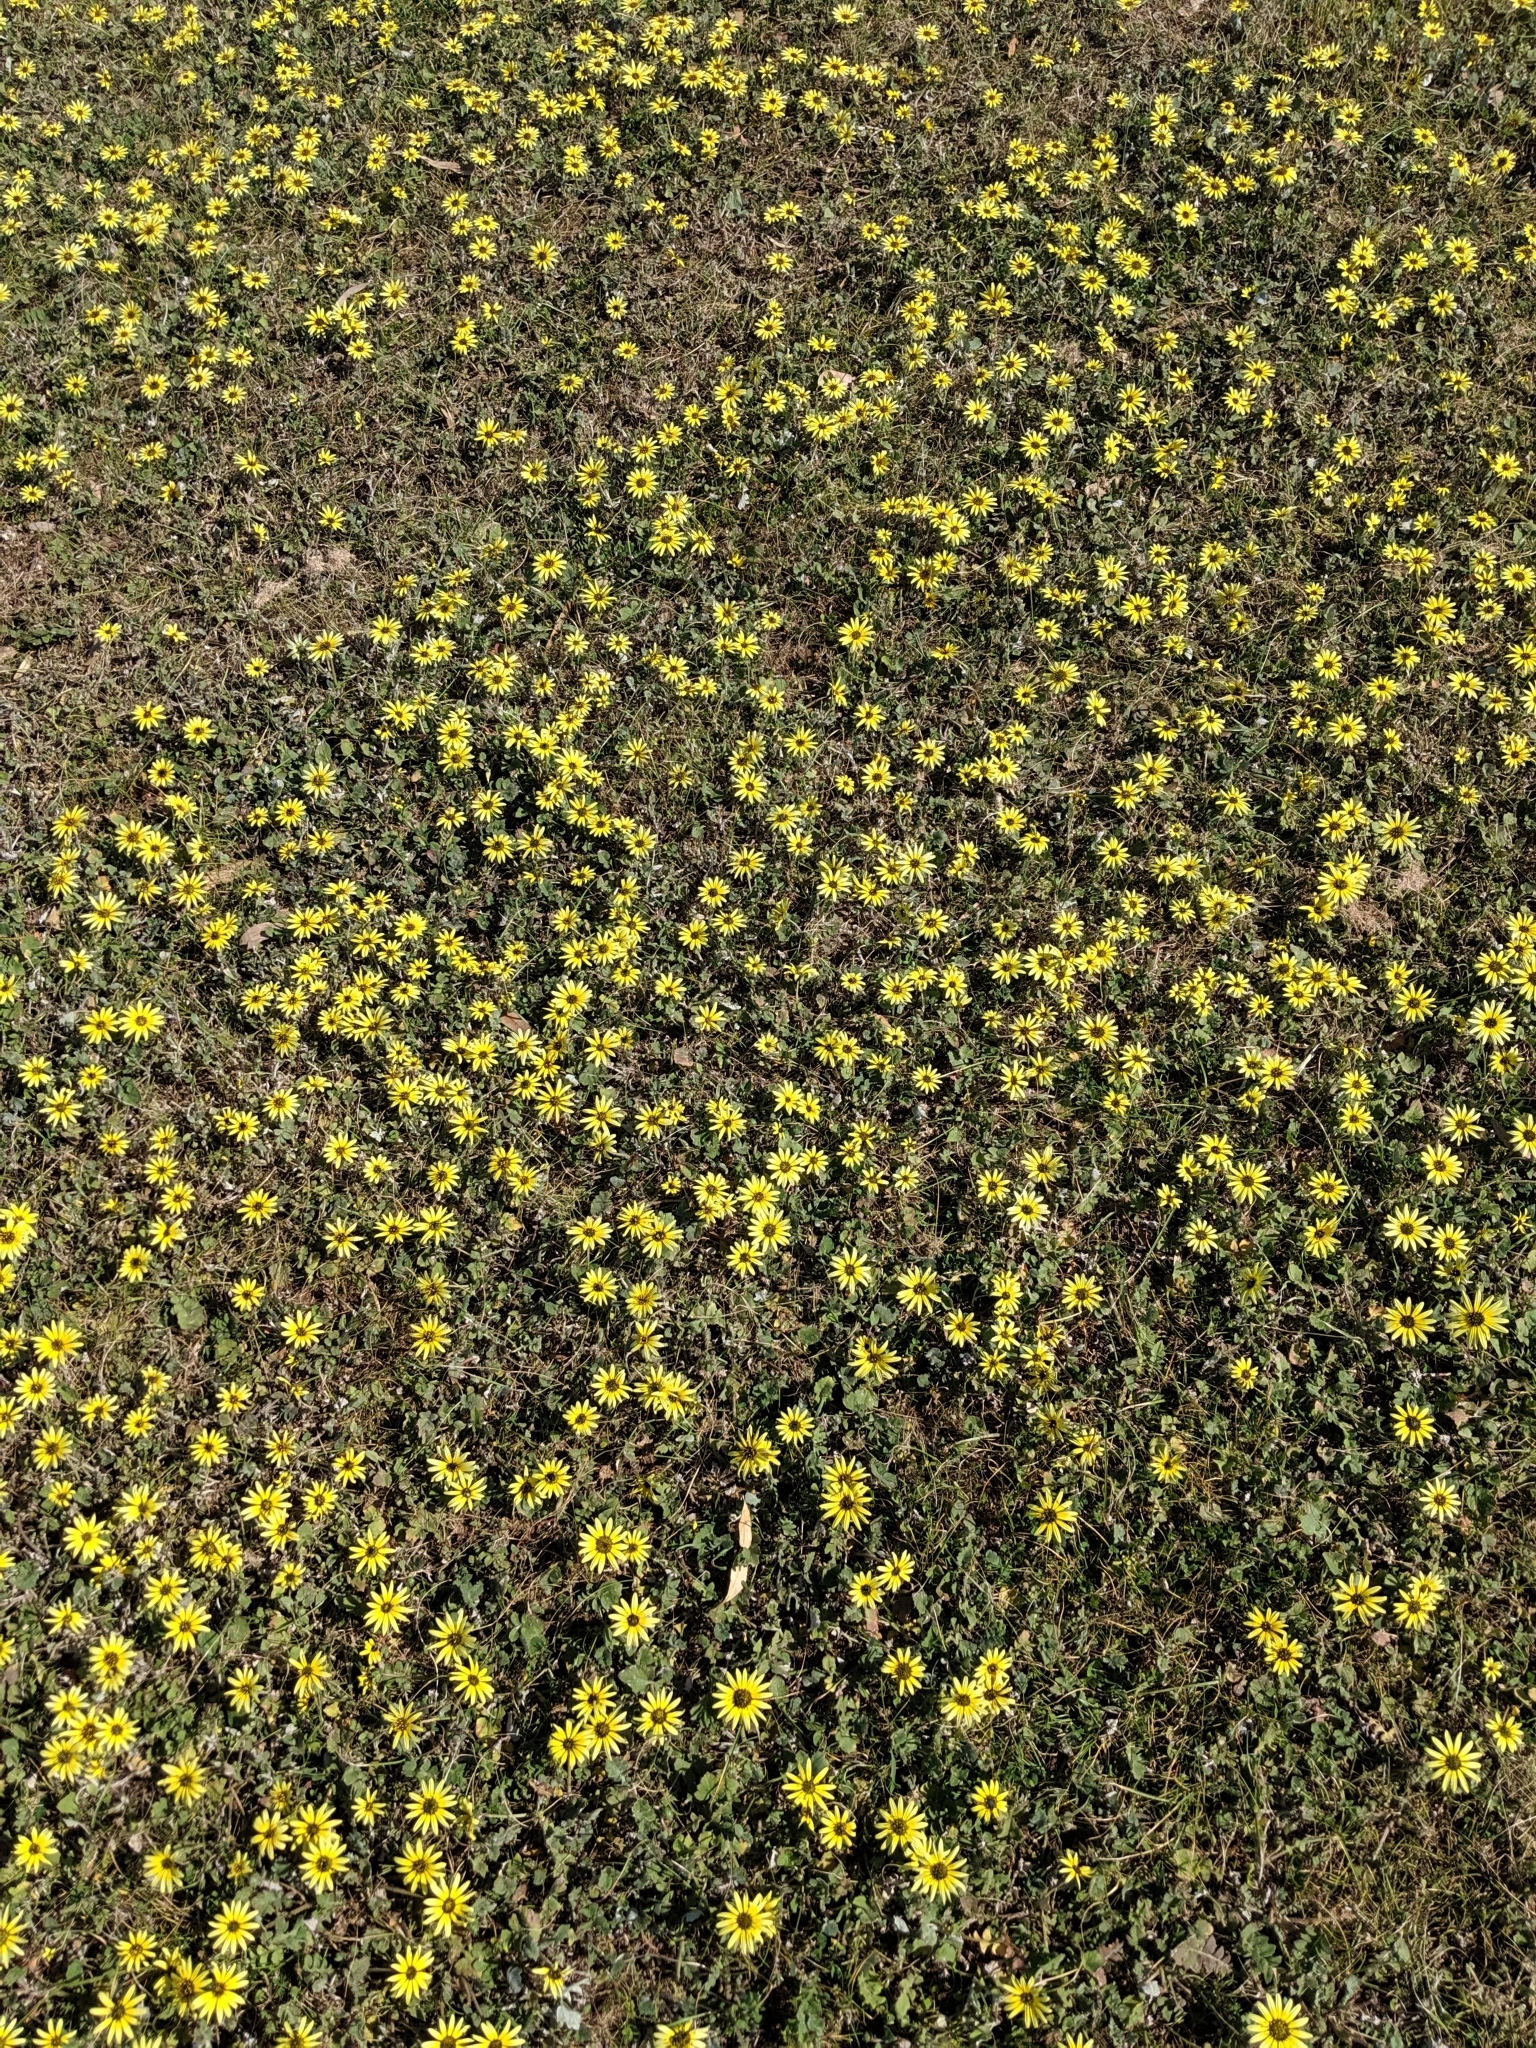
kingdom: Plantae
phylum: Tracheophyta
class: Magnoliopsida
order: Asterales
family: Asteraceae
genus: Arctotheca
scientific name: Arctotheca calendula
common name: Capeweed
